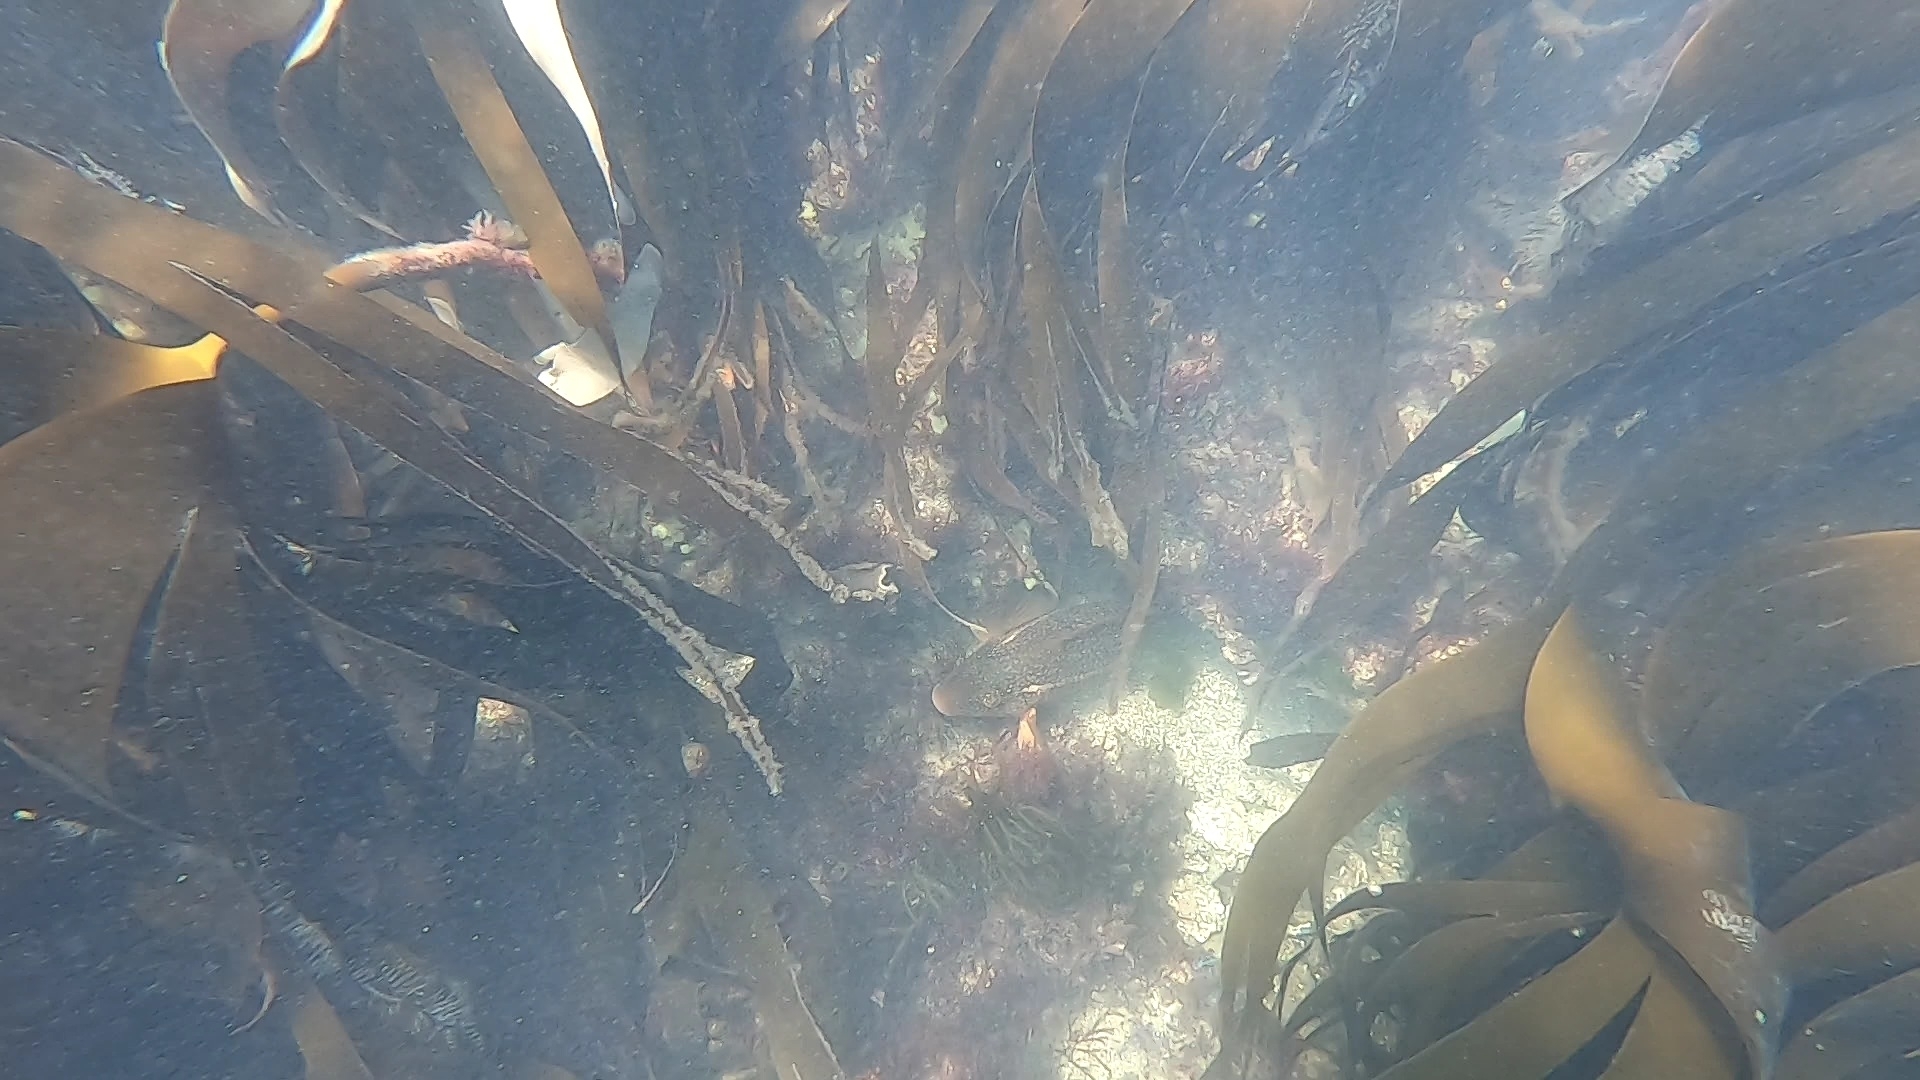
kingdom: Animalia
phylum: Chordata
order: Perciformes
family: Labridae
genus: Labrus
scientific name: Labrus bergylta
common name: Ballan wrasse
